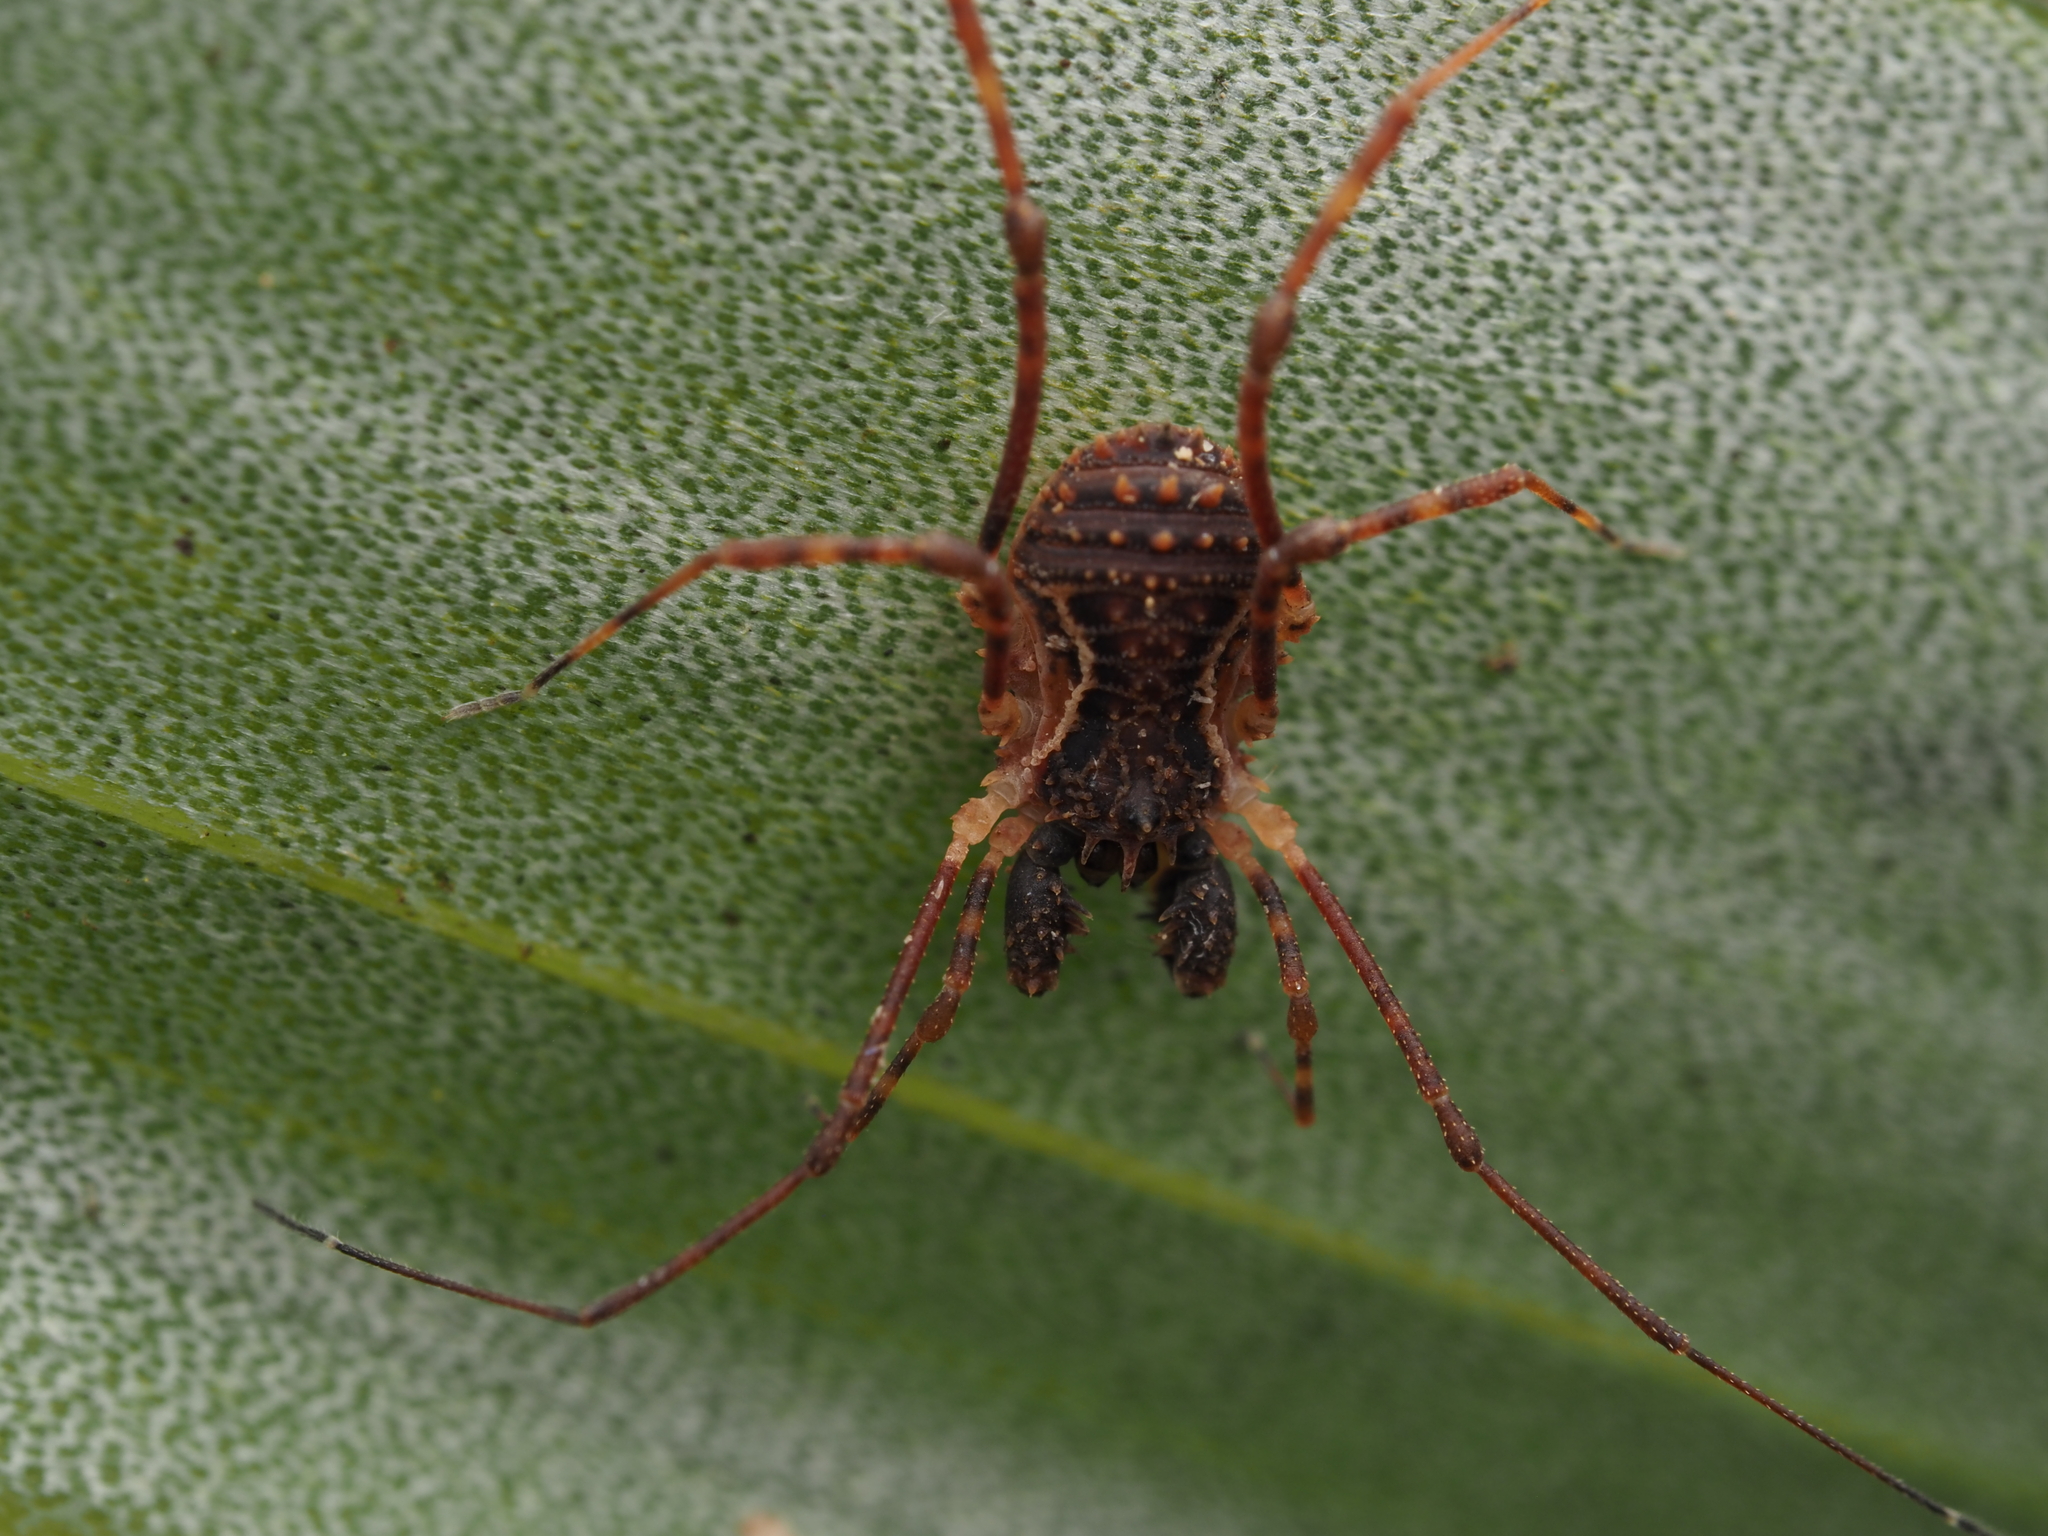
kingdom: Animalia
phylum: Arthropoda
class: Arachnida
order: Opiliones
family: Triaenonychidae
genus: Algidia
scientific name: Algidia chiltoni
